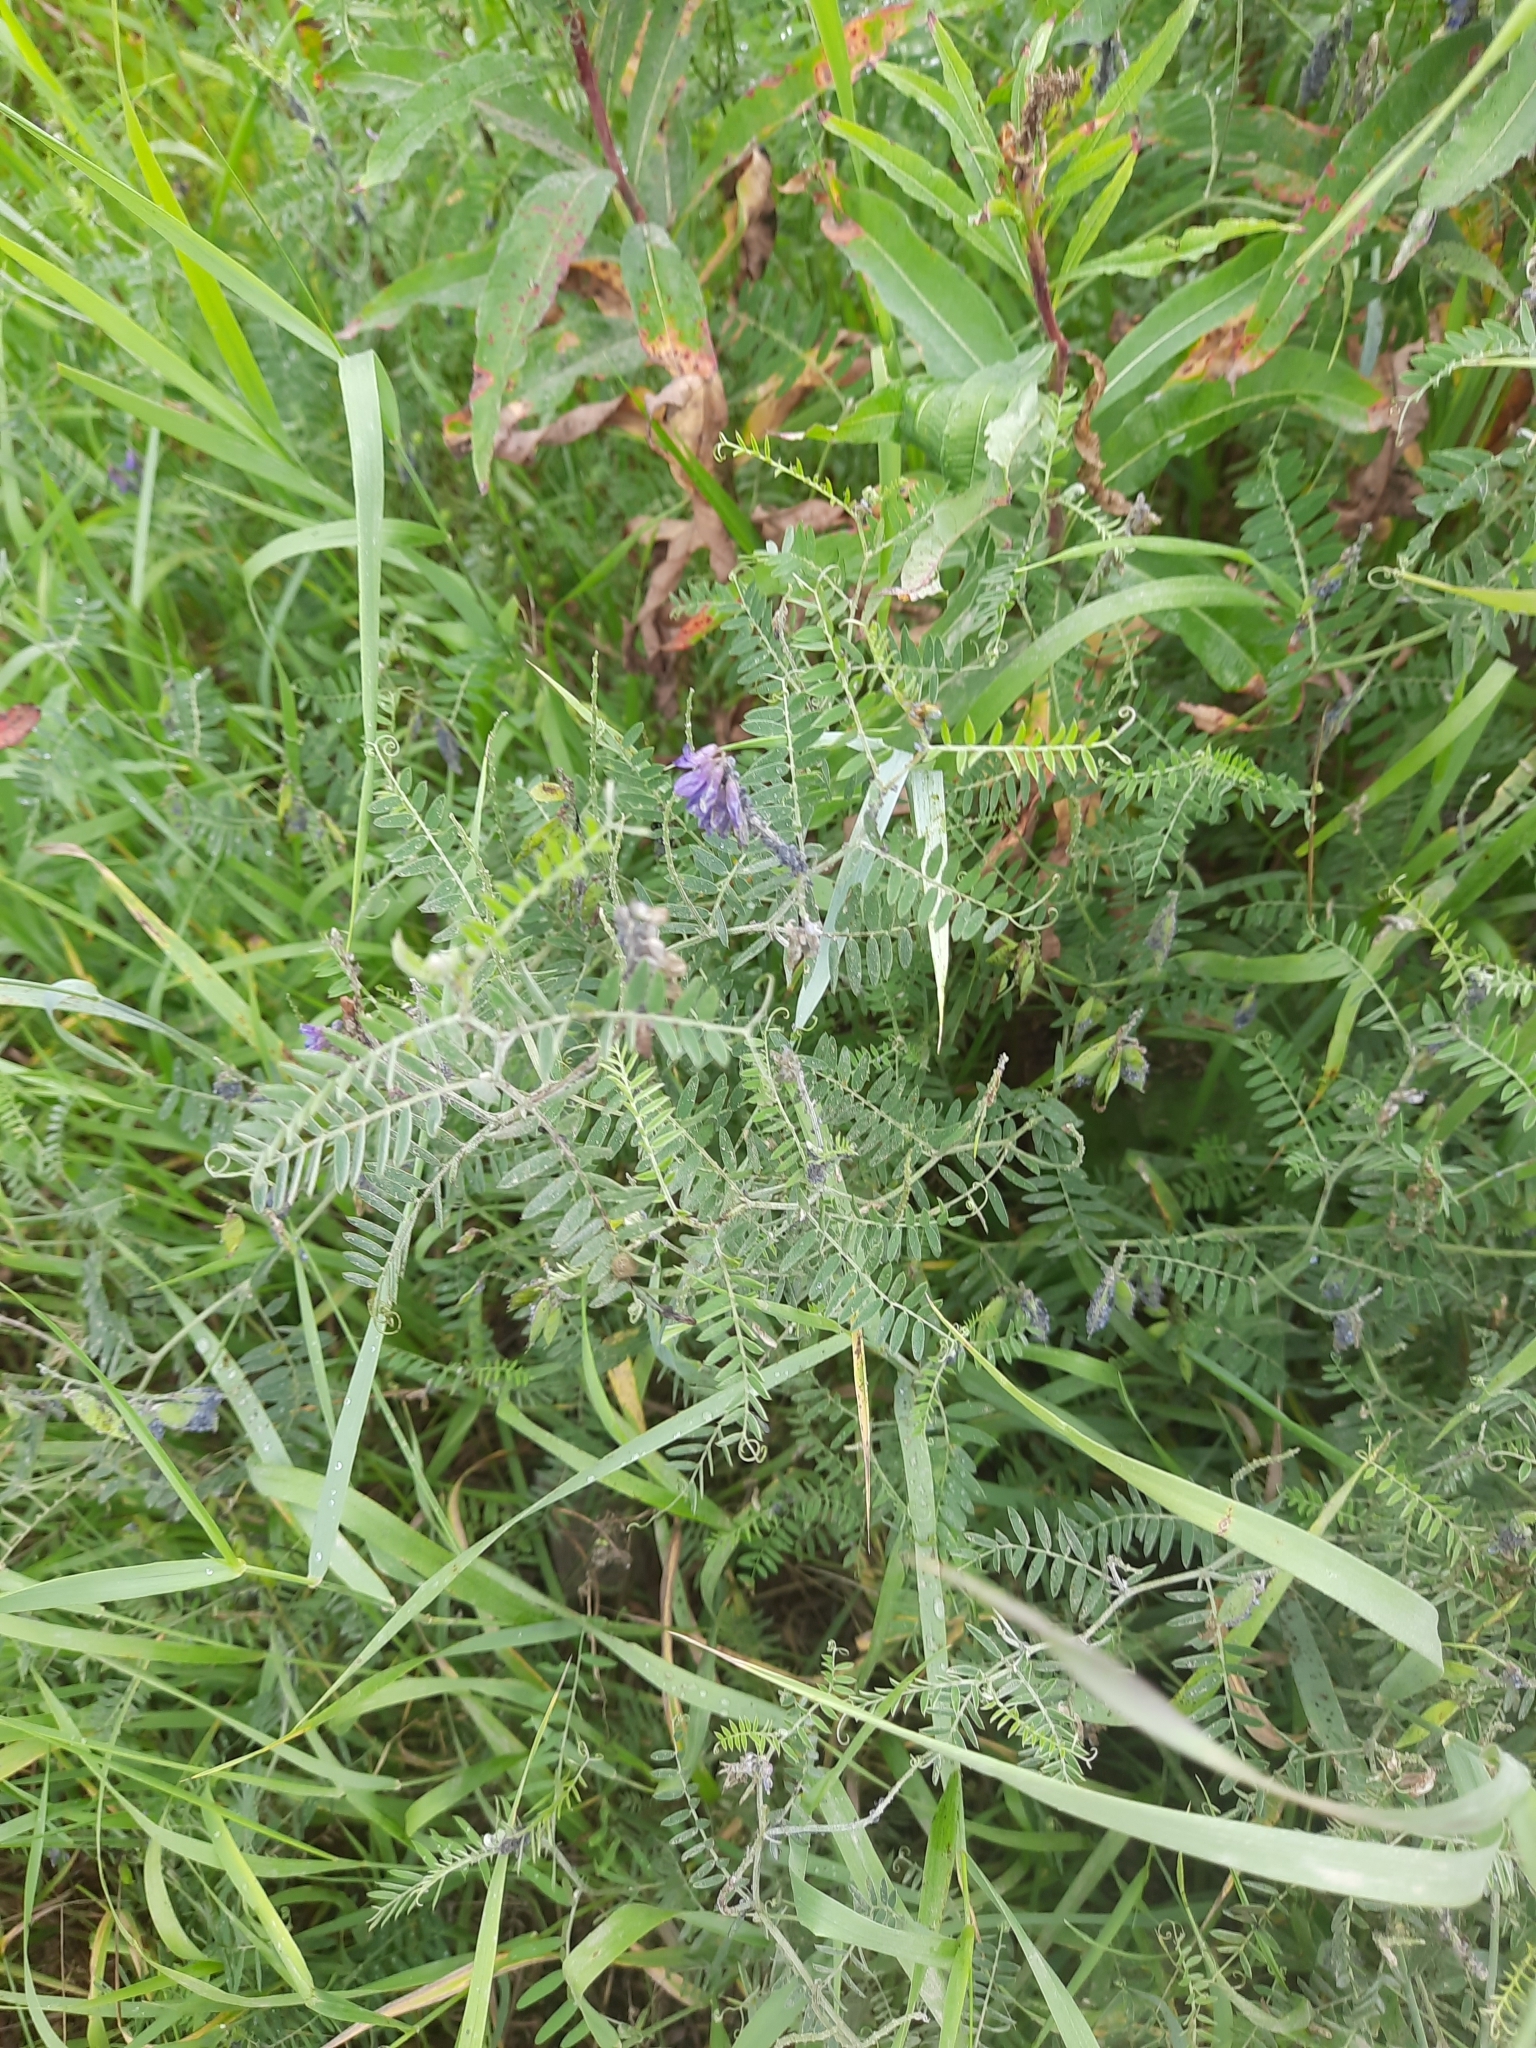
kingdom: Plantae
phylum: Tracheophyta
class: Magnoliopsida
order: Fabales
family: Fabaceae
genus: Vicia
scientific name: Vicia cracca
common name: Bird vetch
